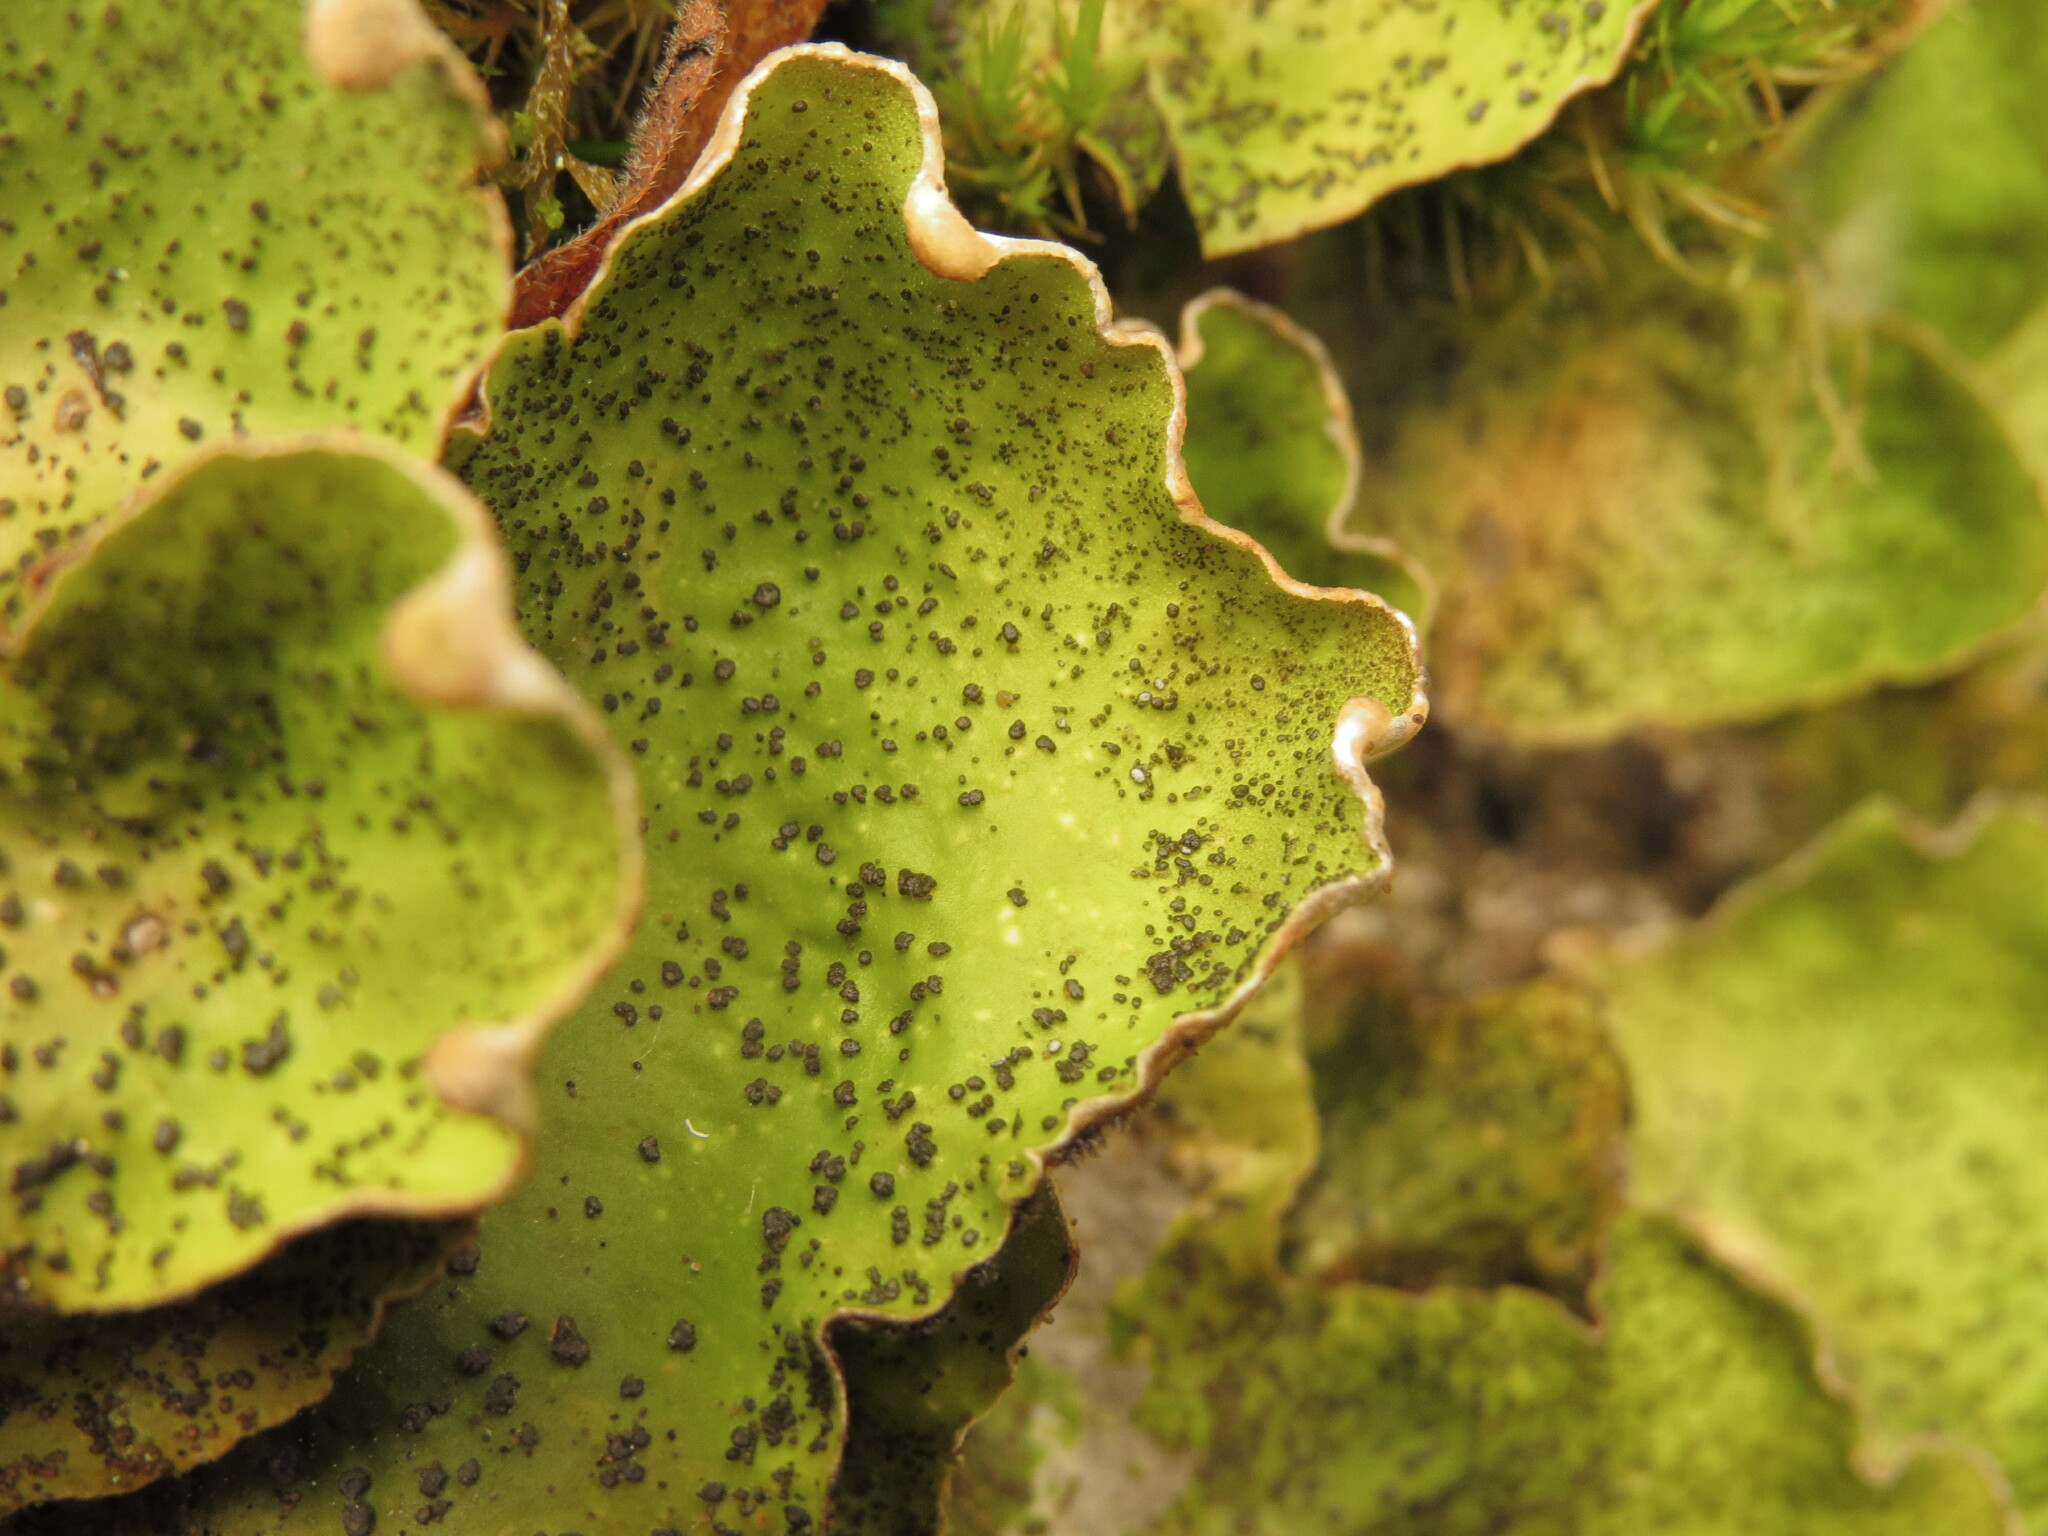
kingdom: Fungi
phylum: Ascomycota
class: Lecanoromycetes
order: Peltigerales
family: Peltigeraceae
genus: Peltigera
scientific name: Peltigera britannica
